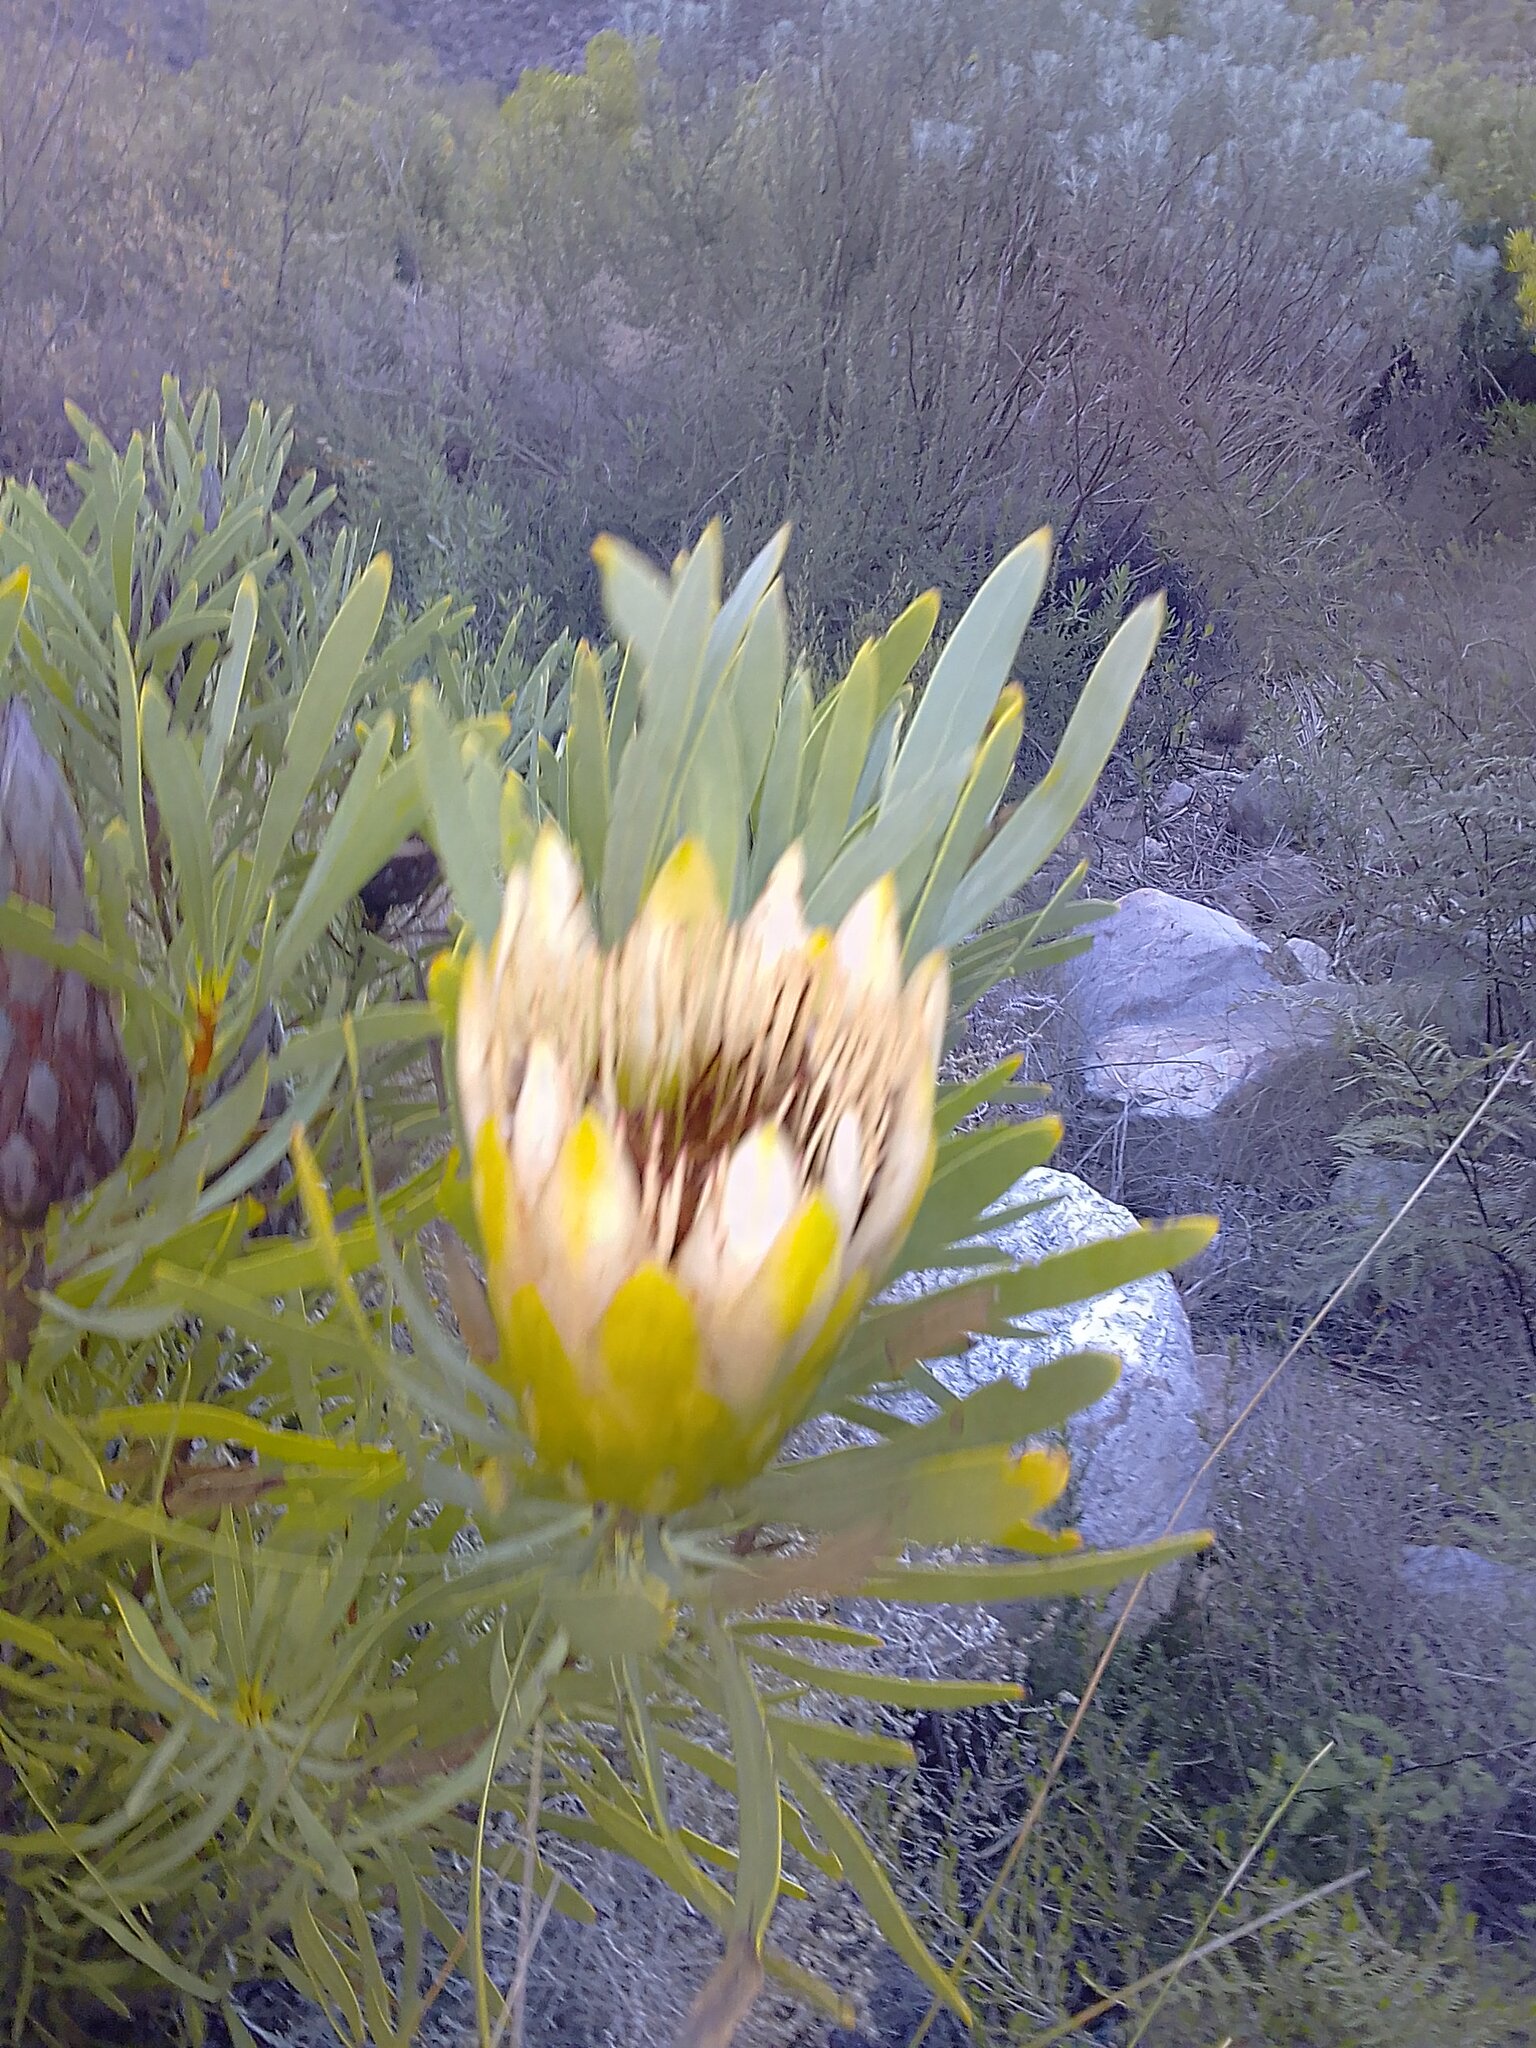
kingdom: Plantae
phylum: Tracheophyta
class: Magnoliopsida
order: Proteales
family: Proteaceae
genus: Protea
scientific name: Protea repens
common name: Sugarbush
